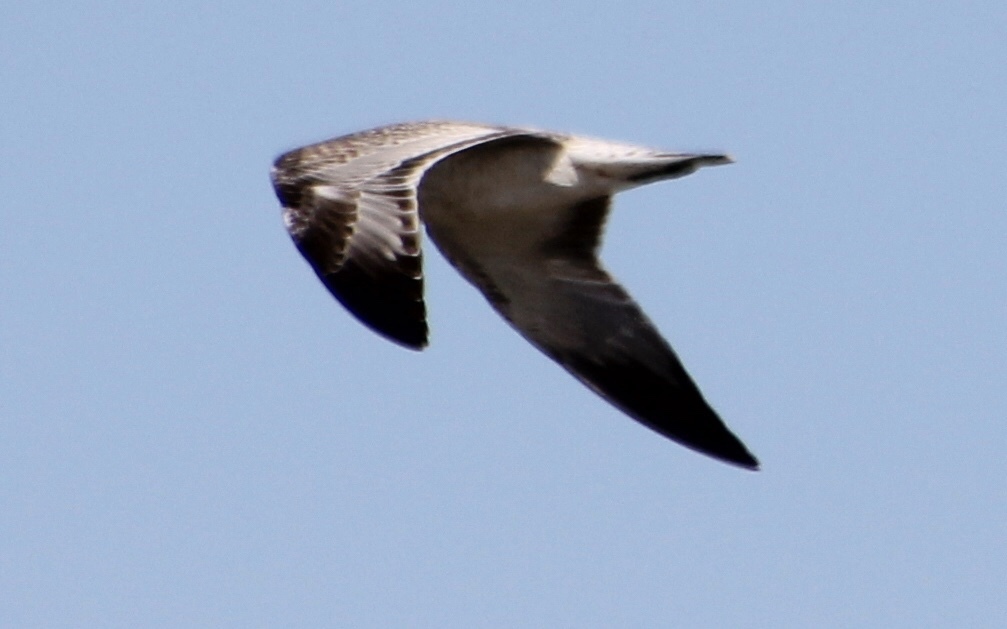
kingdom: Animalia
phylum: Chordata
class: Aves
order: Charadriiformes
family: Laridae
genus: Leucophaeus
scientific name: Leucophaeus atricilla
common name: Laughing gull
